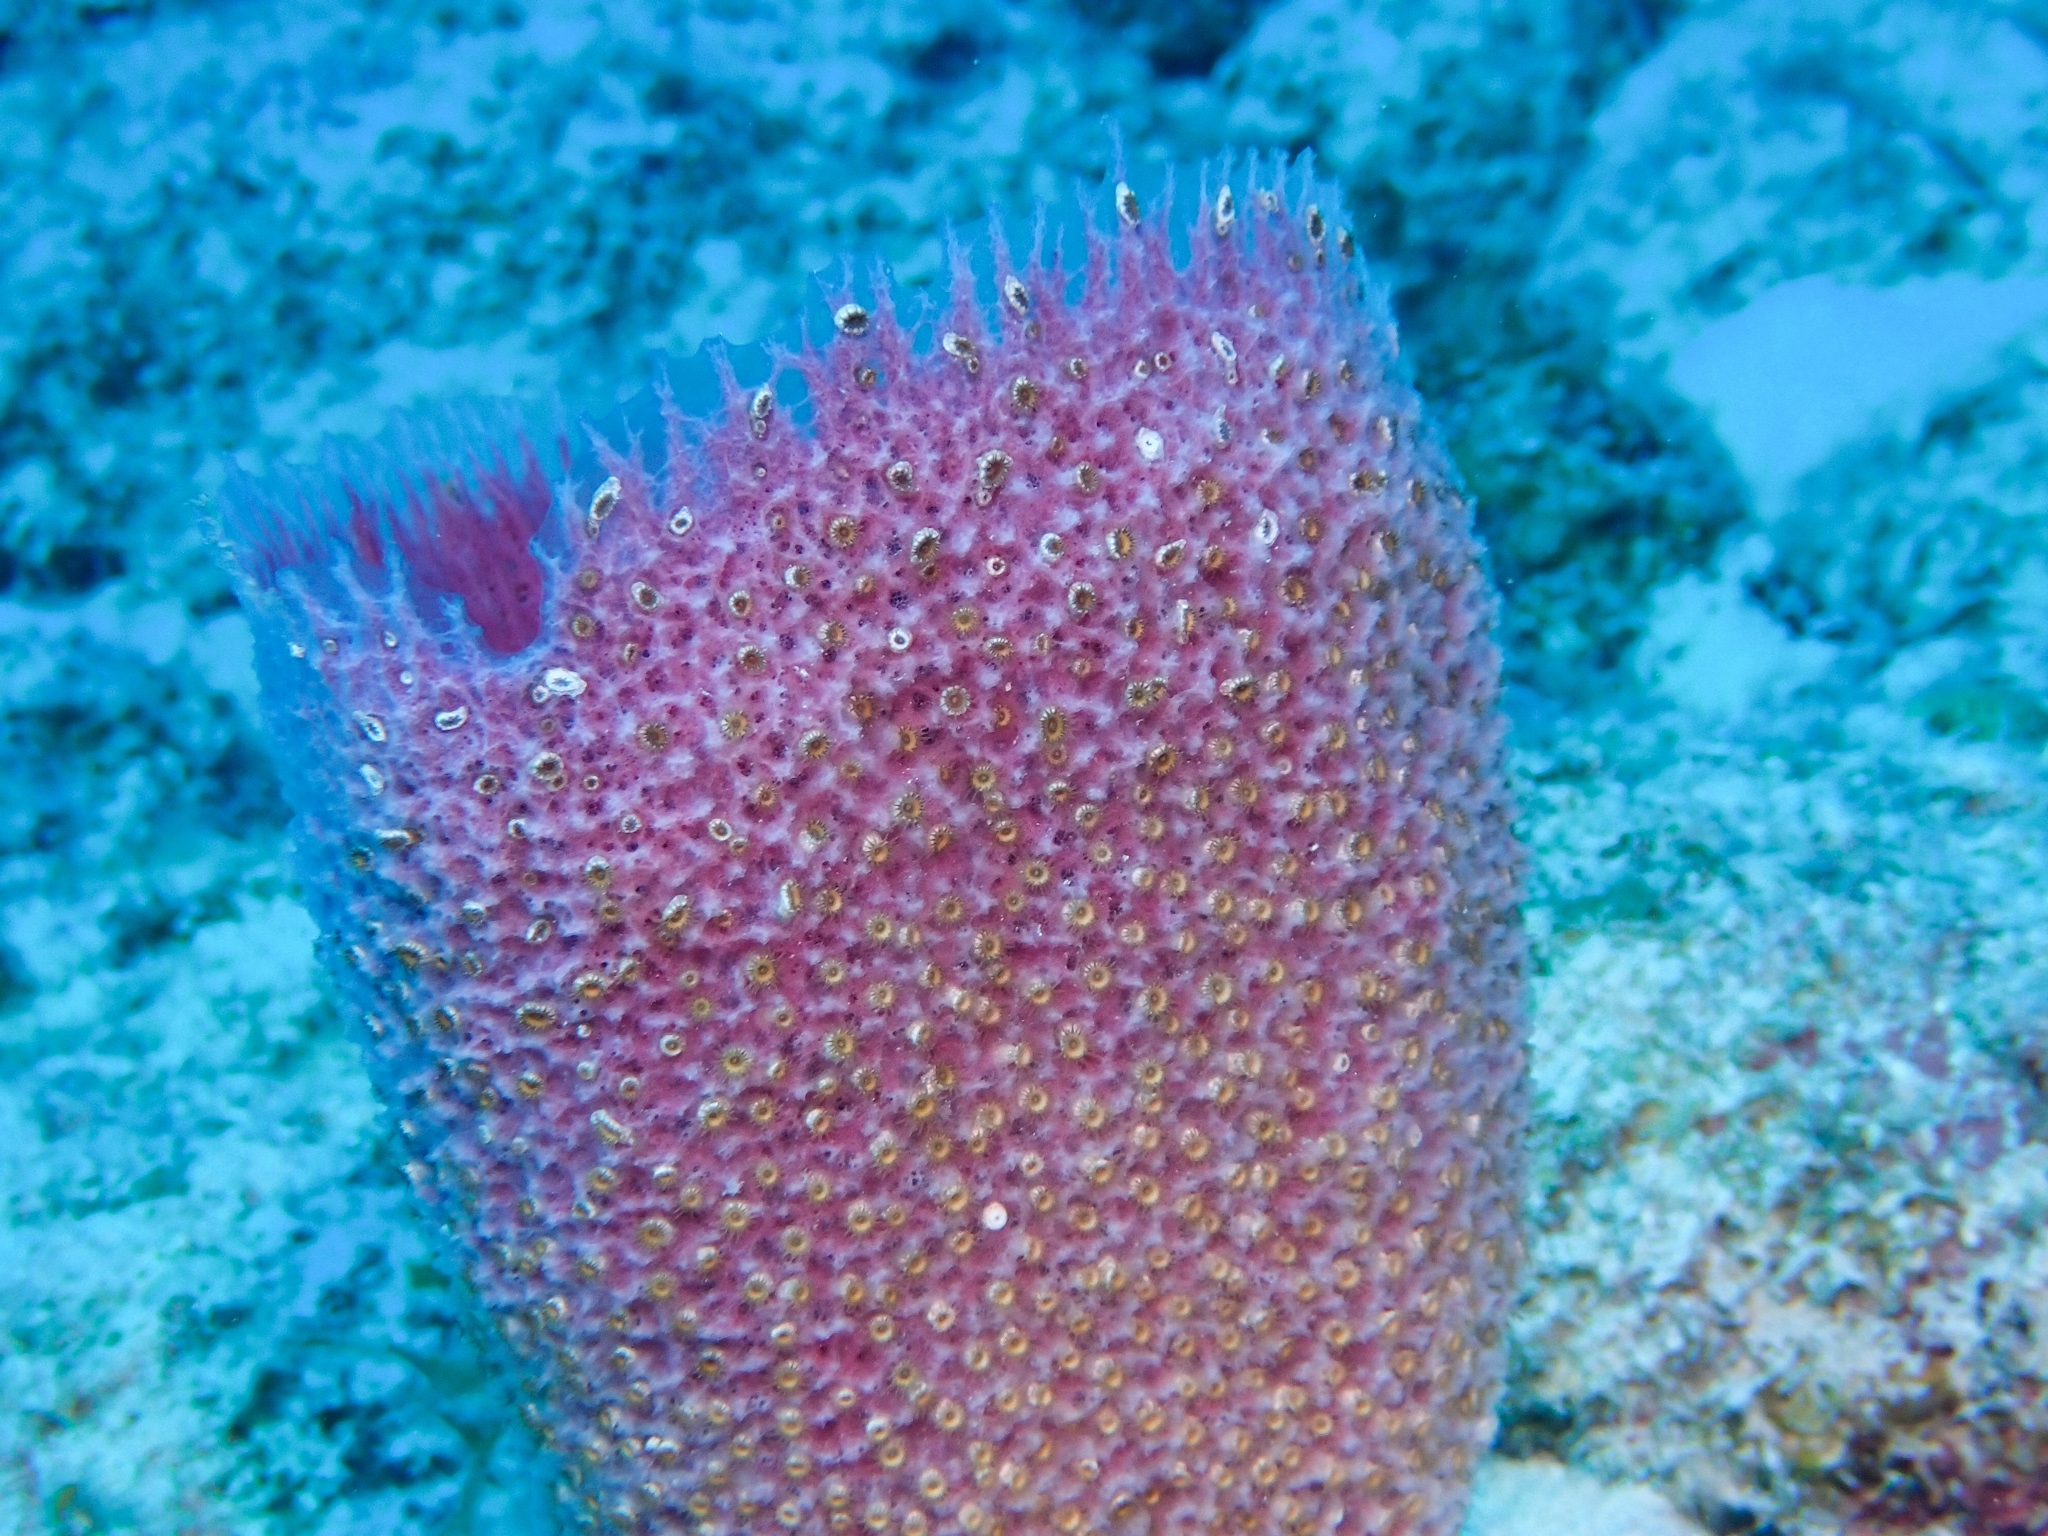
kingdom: Animalia
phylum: Porifera
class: Demospongiae
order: Haplosclerida
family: Niphatidae
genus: Niphates
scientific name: Niphates digitalis
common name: Pink vase sponge
